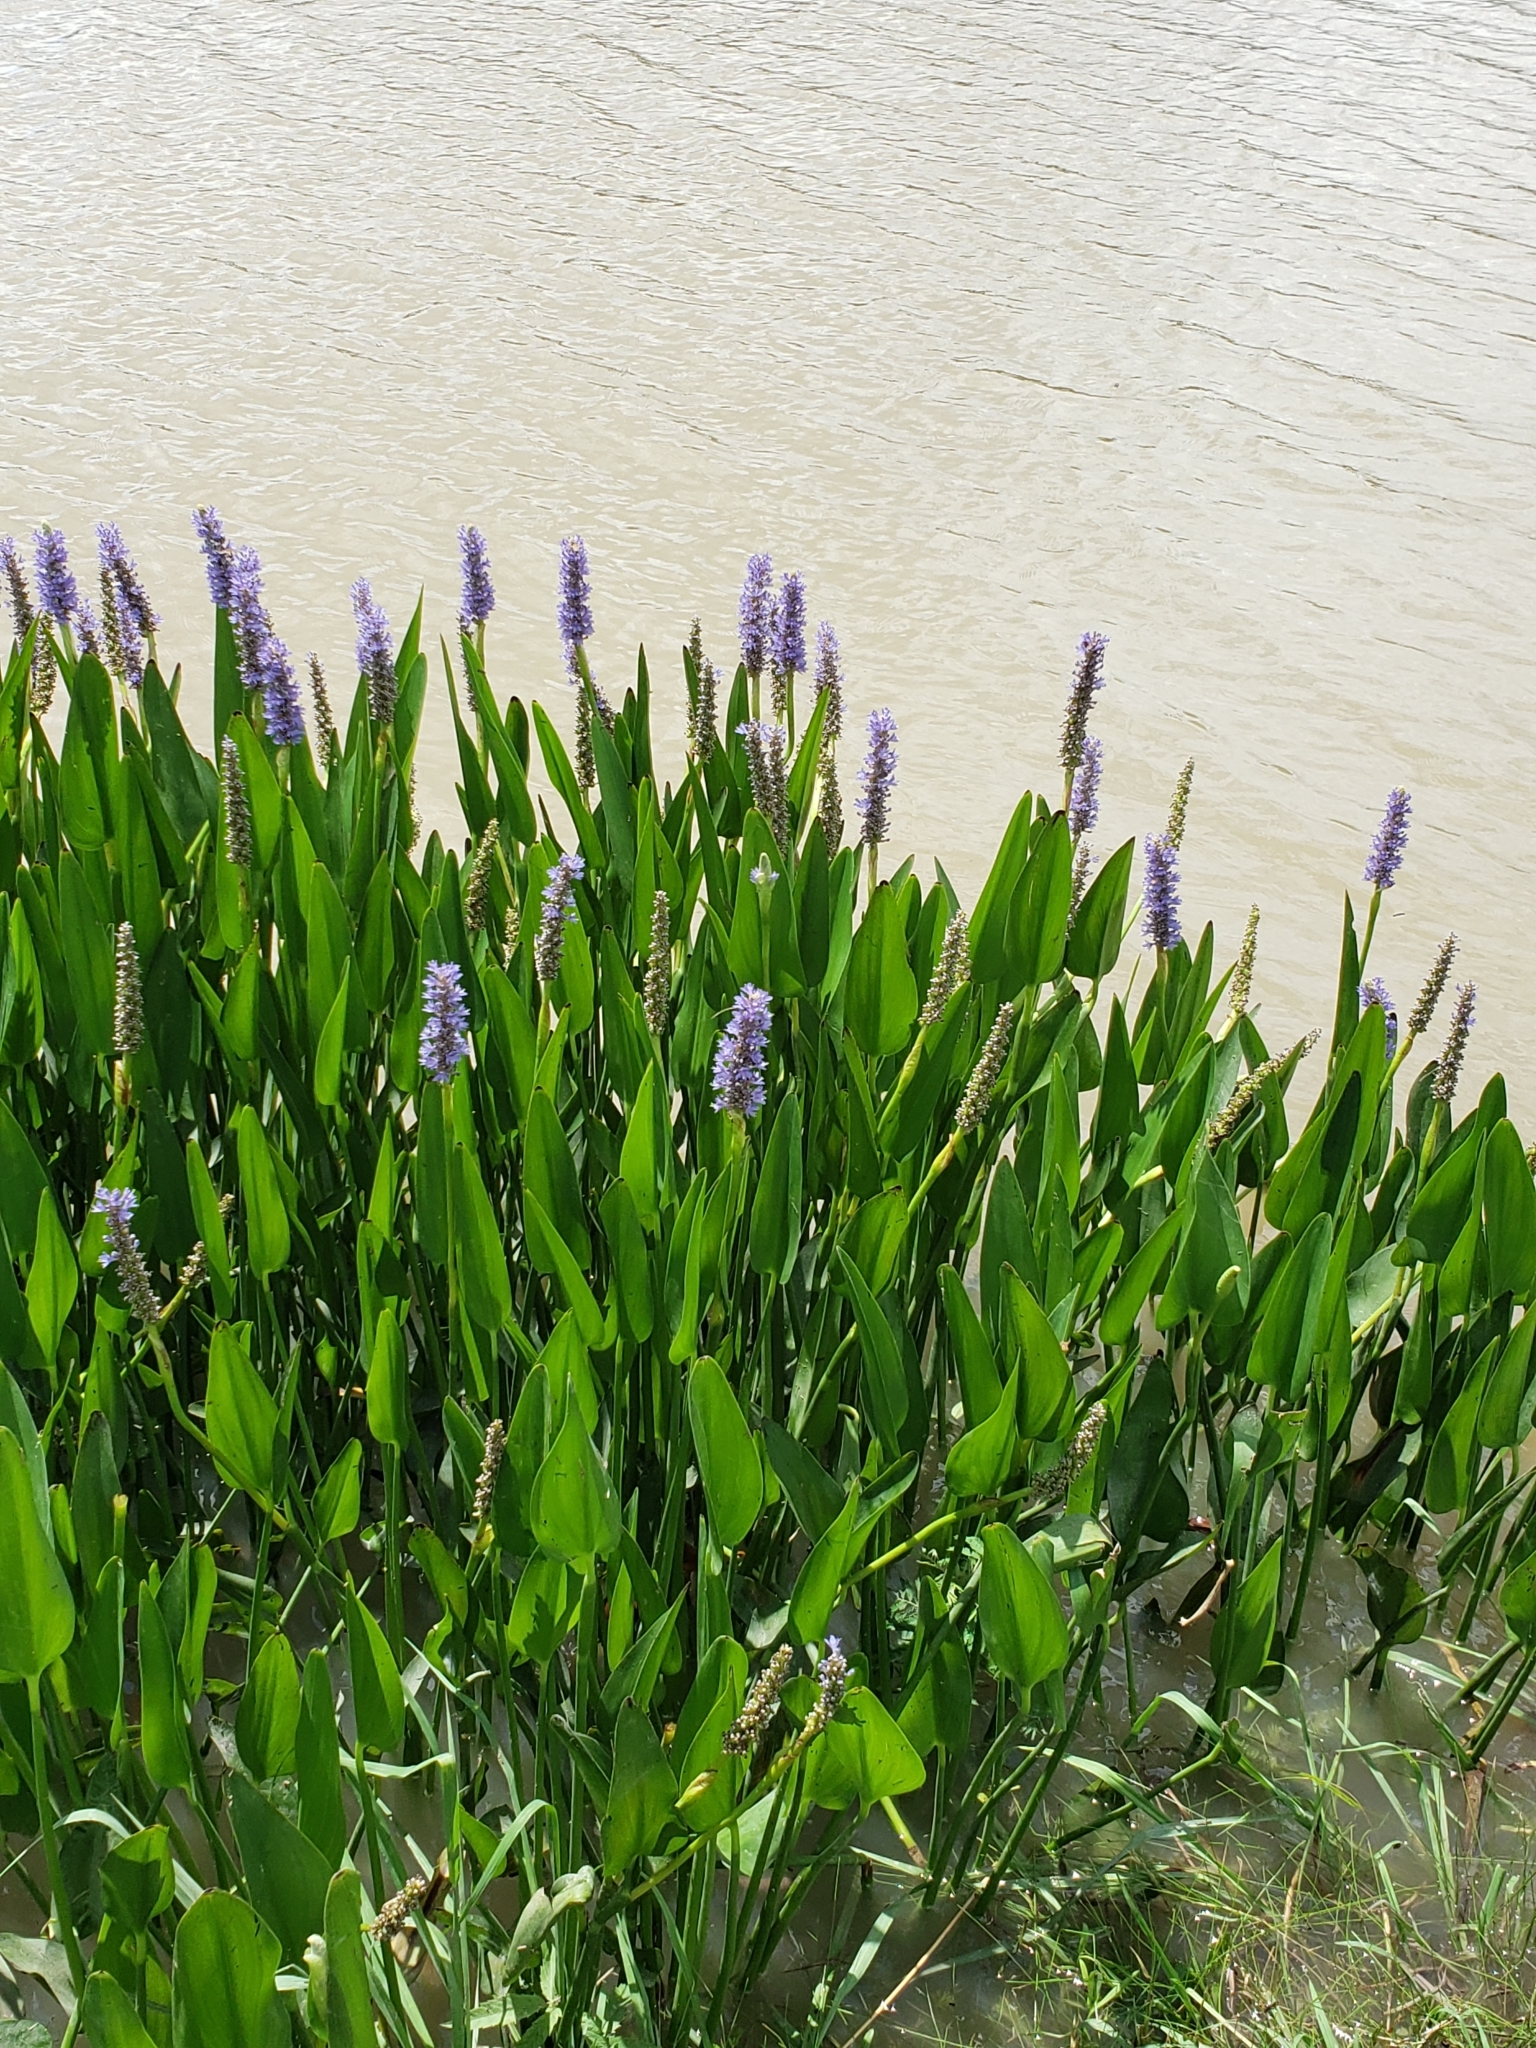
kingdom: Plantae
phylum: Tracheophyta
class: Liliopsida
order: Commelinales
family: Pontederiaceae
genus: Pontederia
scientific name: Pontederia cordata
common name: Pickerelweed
